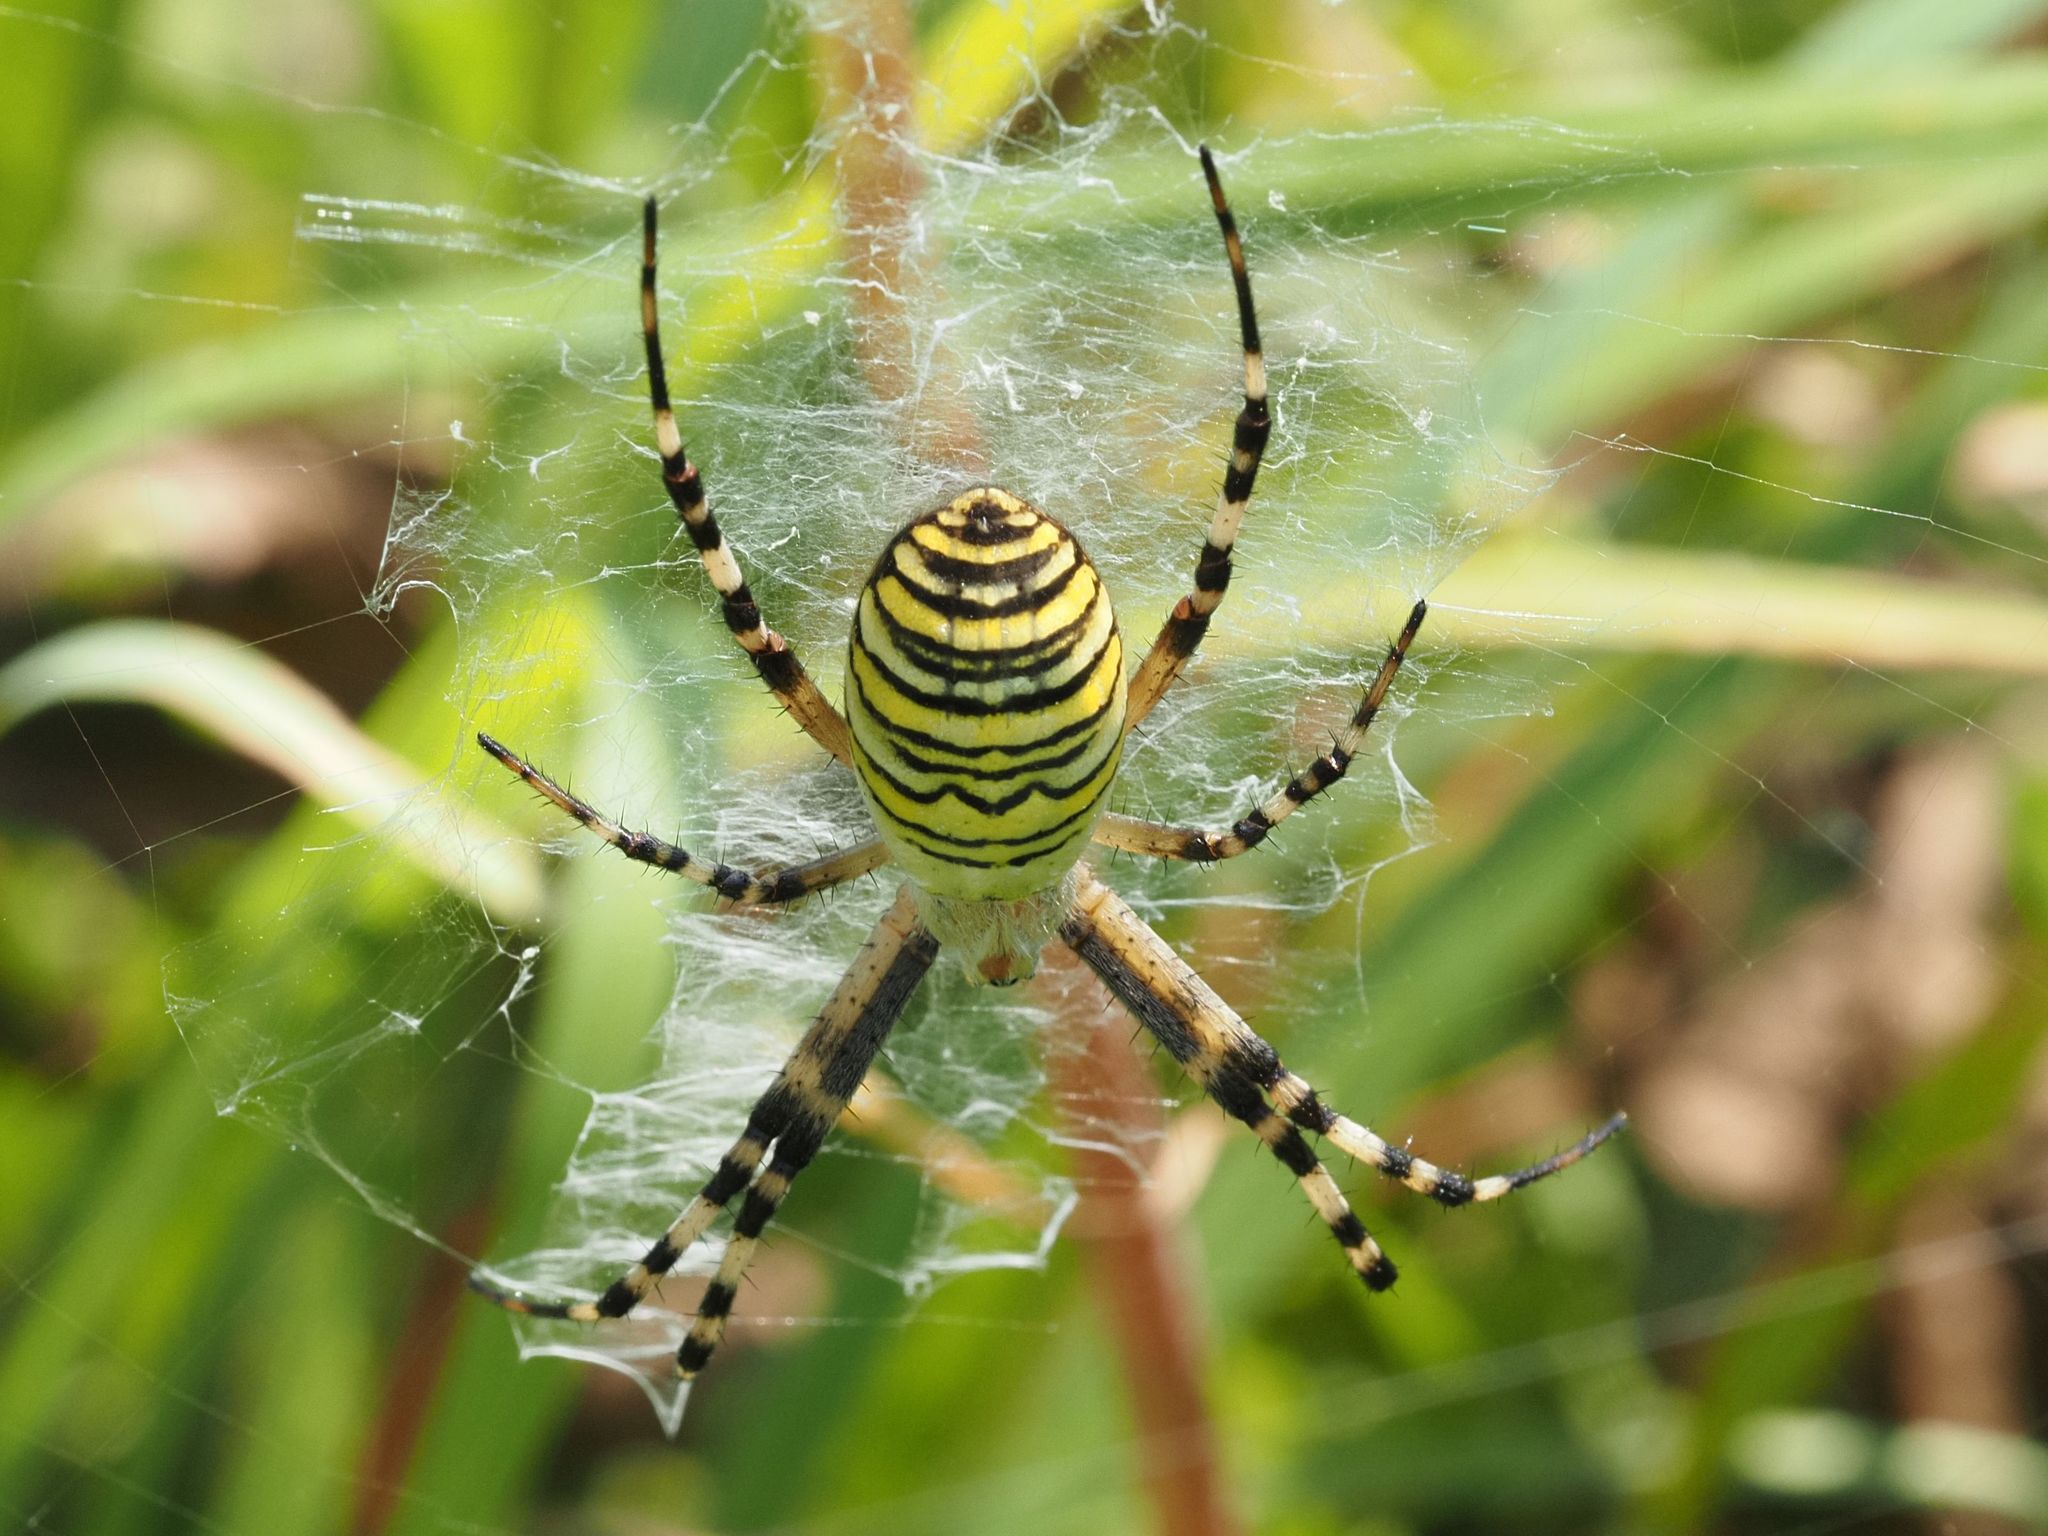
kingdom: Animalia
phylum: Arthropoda
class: Arachnida
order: Araneae
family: Araneidae
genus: Argiope
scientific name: Argiope bruennichi
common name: Wasp spider
